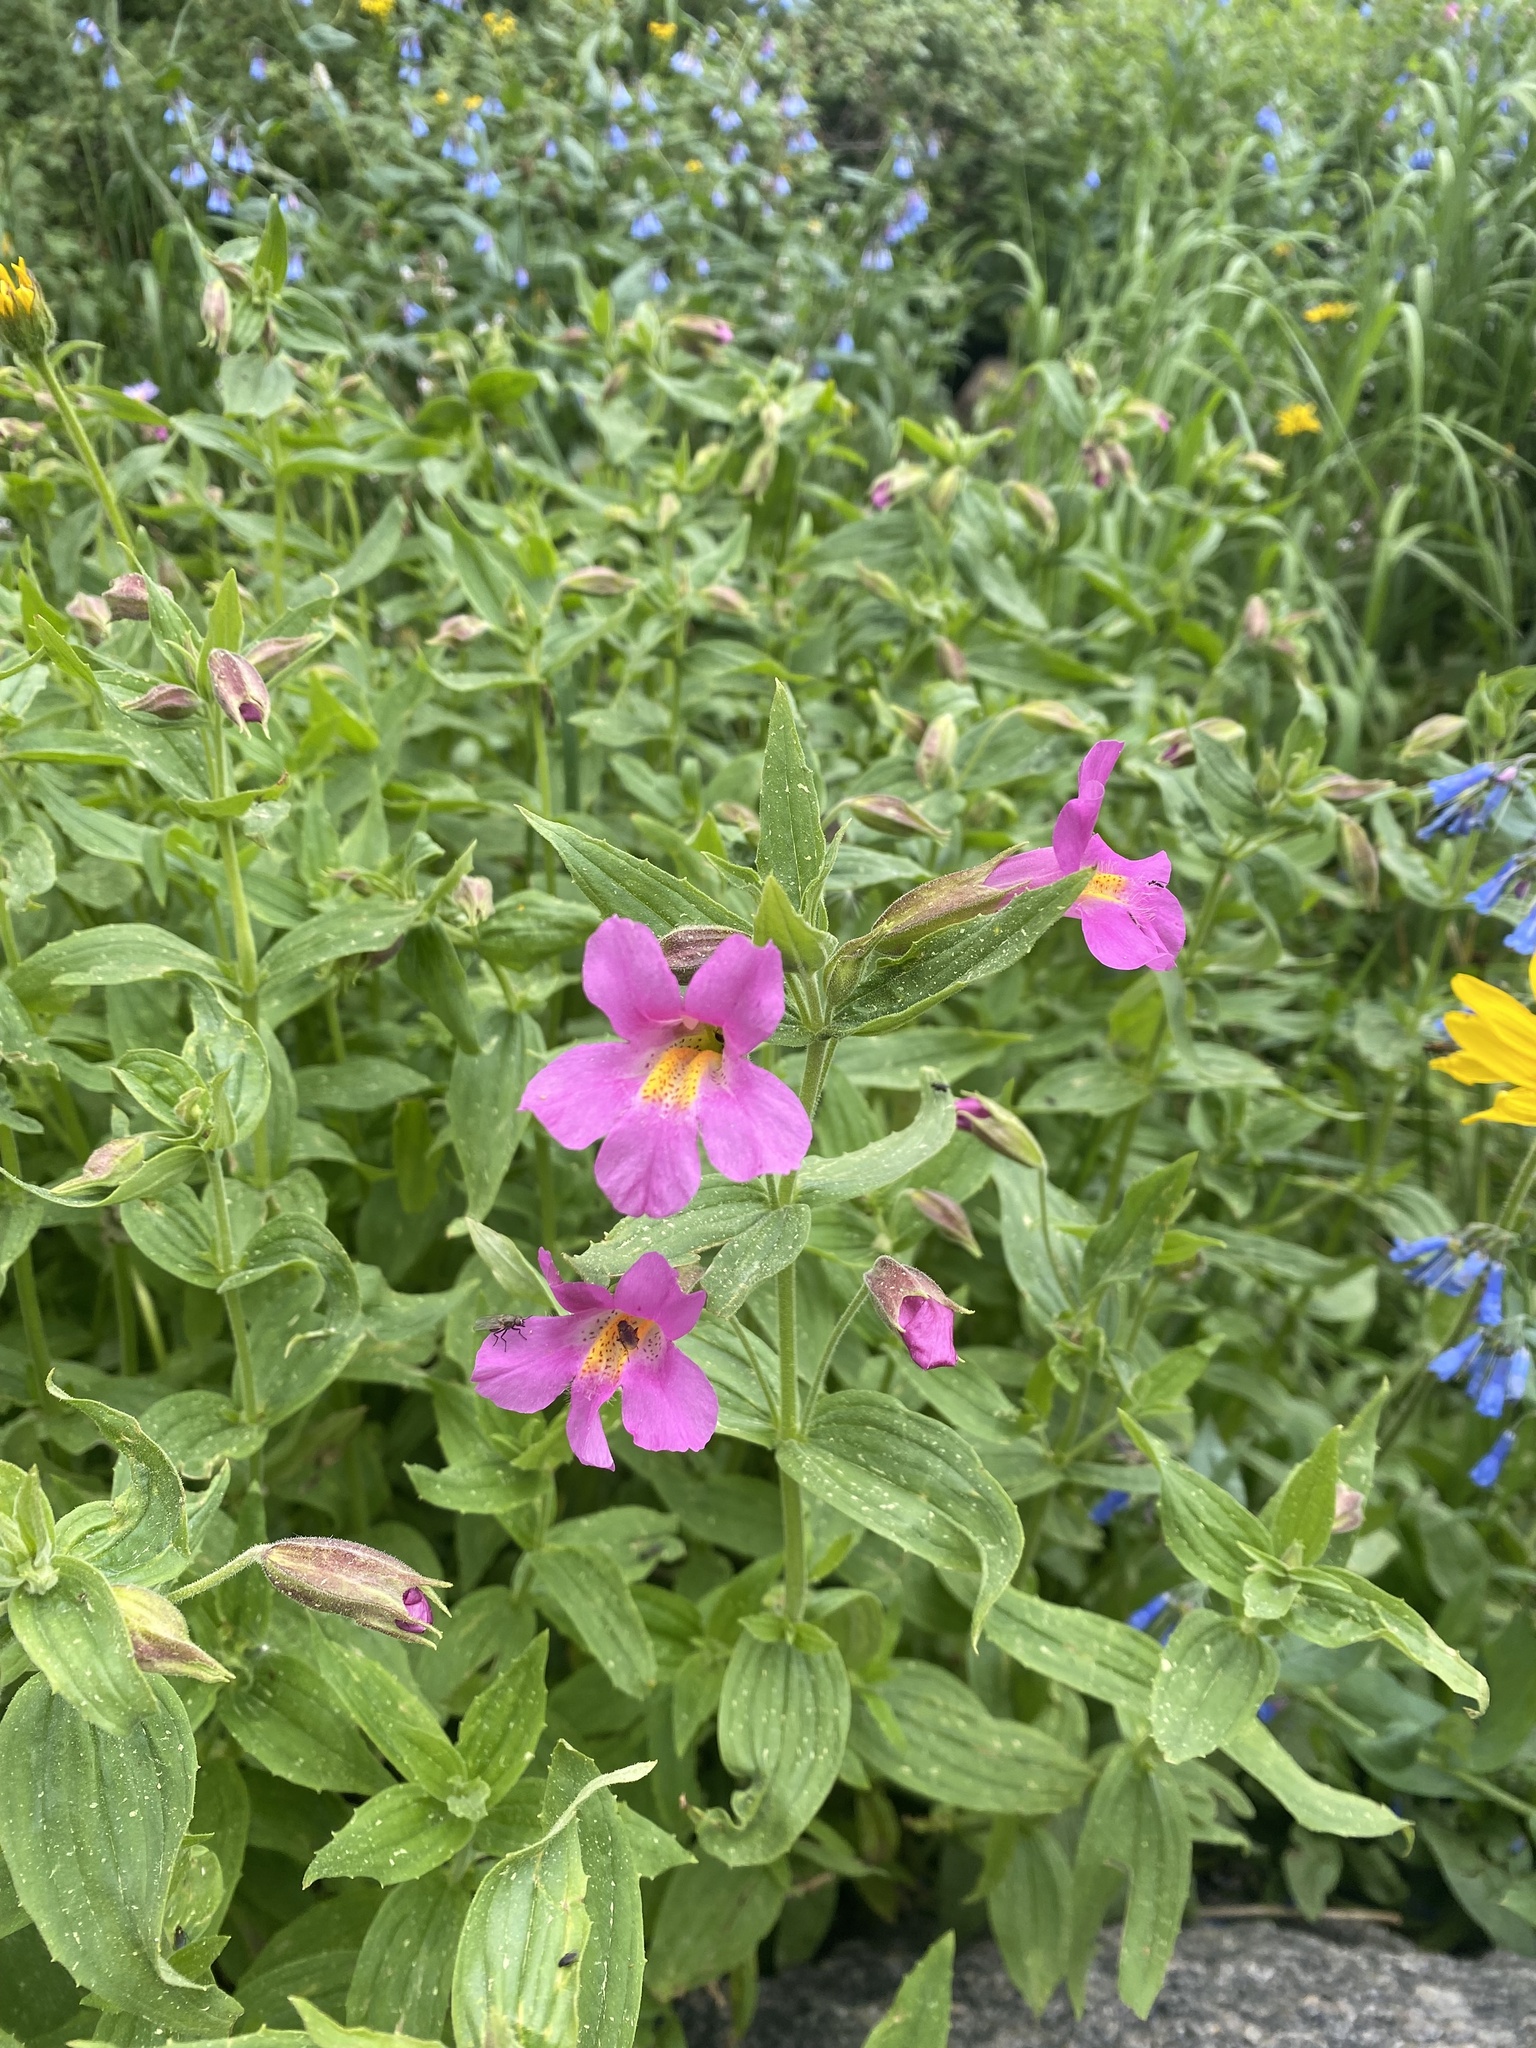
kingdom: Plantae
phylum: Tracheophyta
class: Magnoliopsida
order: Lamiales
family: Phrymaceae
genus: Erythranthe
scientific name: Erythranthe lewisii
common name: Lewis's monkey-flower
